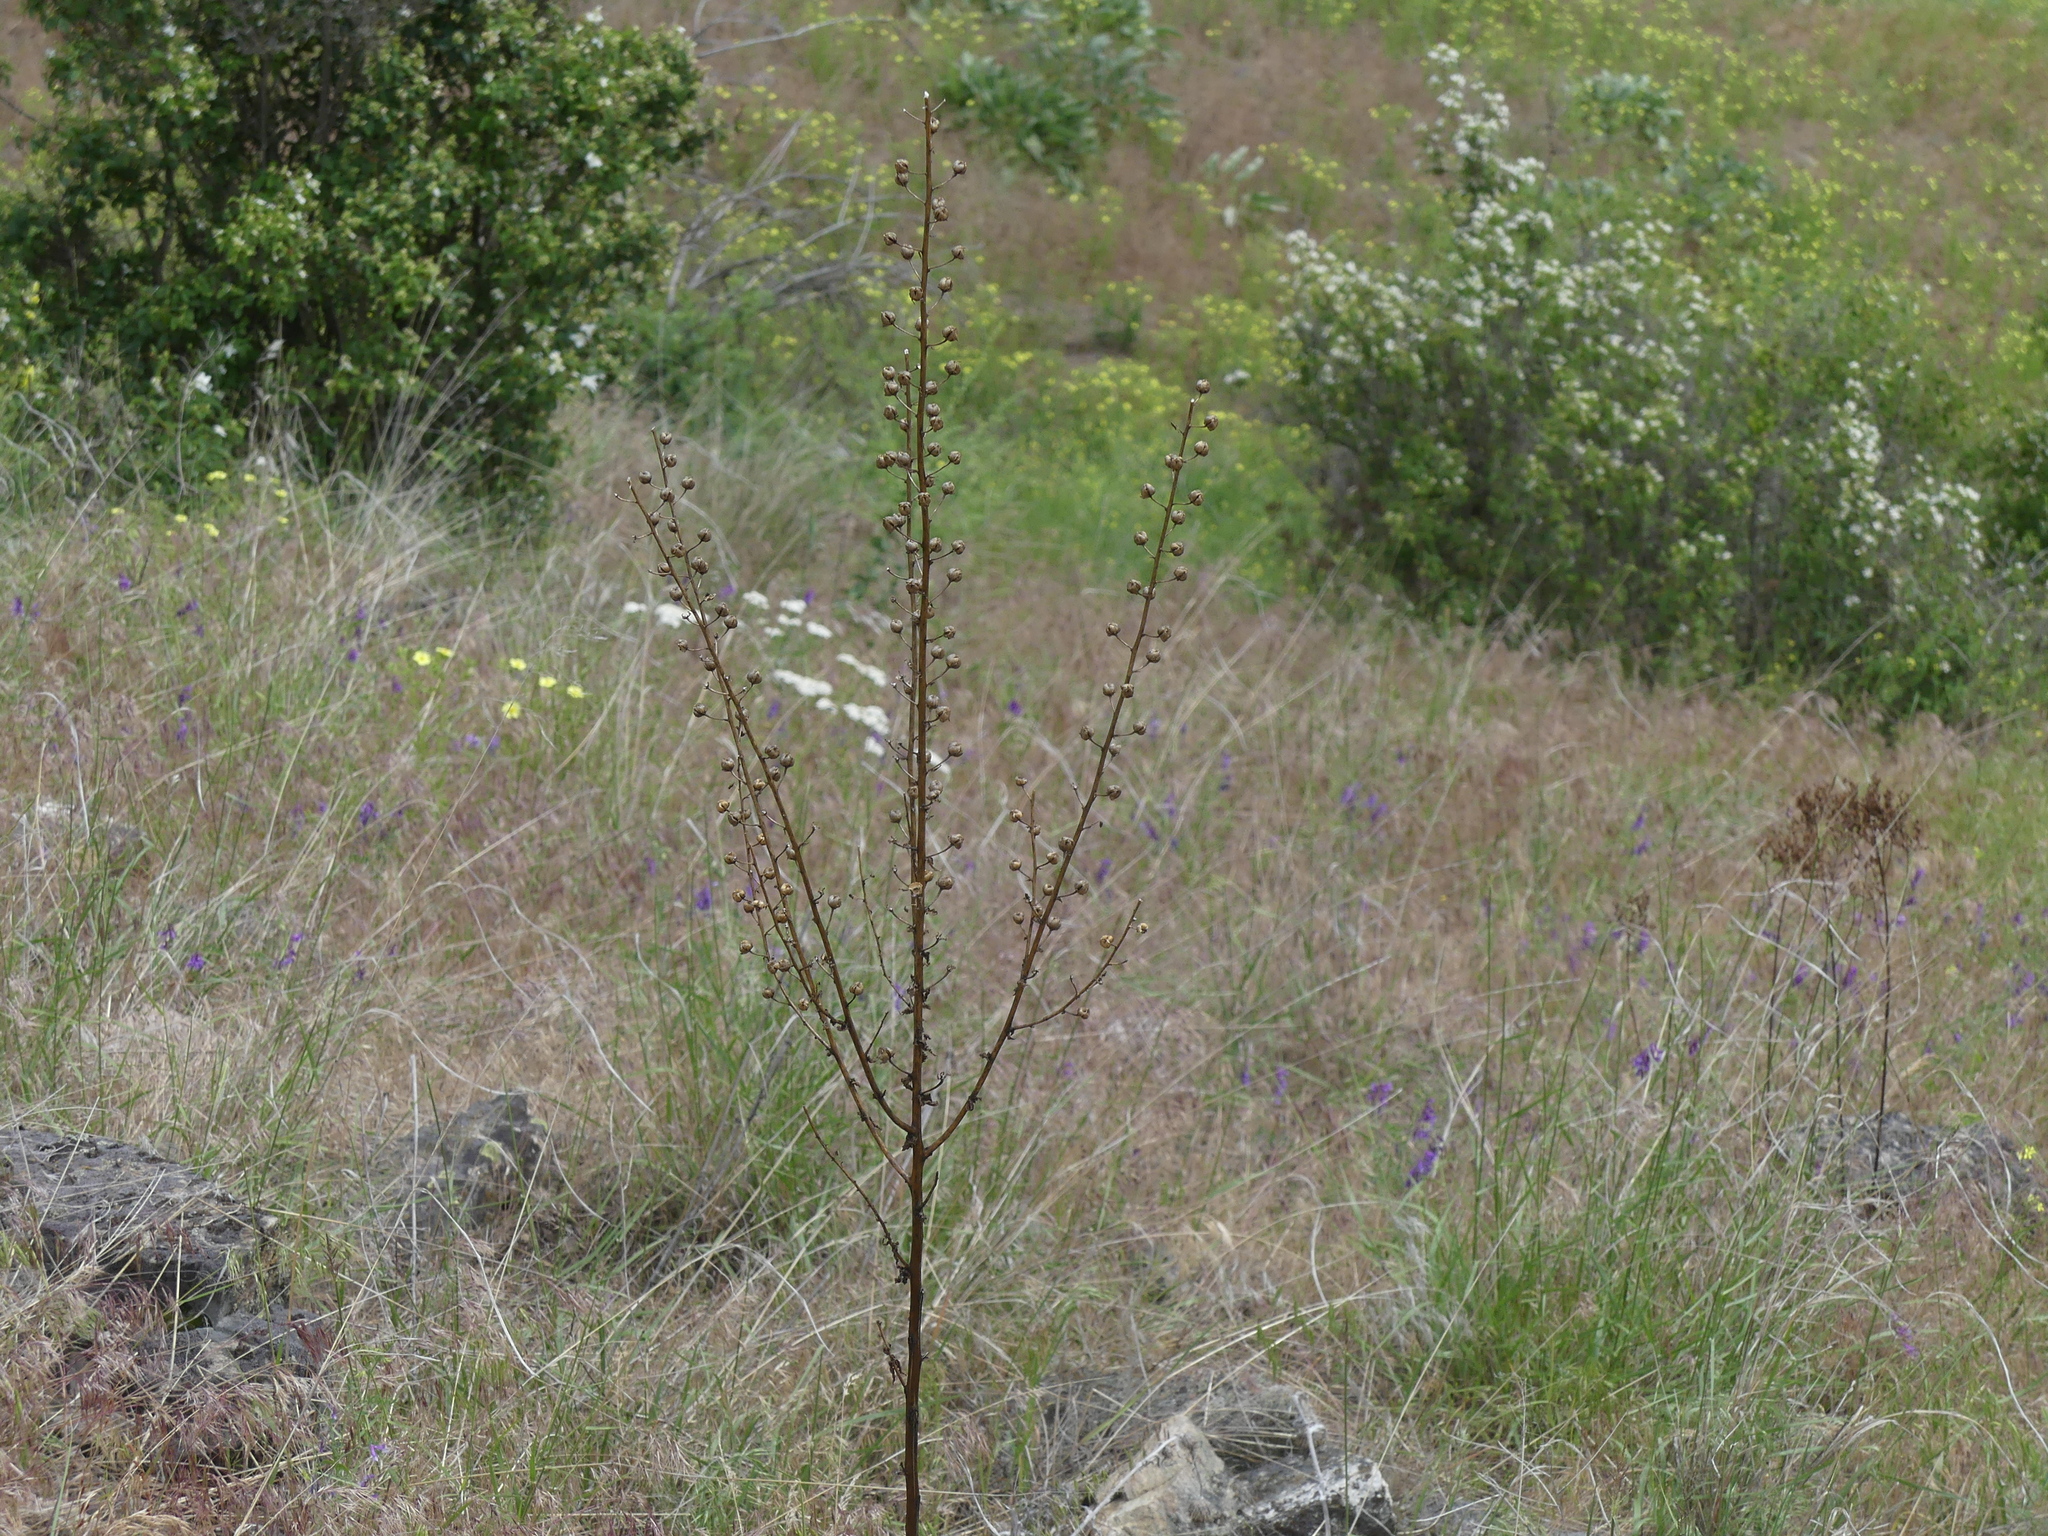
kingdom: Plantae
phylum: Tracheophyta
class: Magnoliopsida
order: Lamiales
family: Scrophulariaceae
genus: Verbascum
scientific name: Verbascum blattaria
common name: Moth mullein
